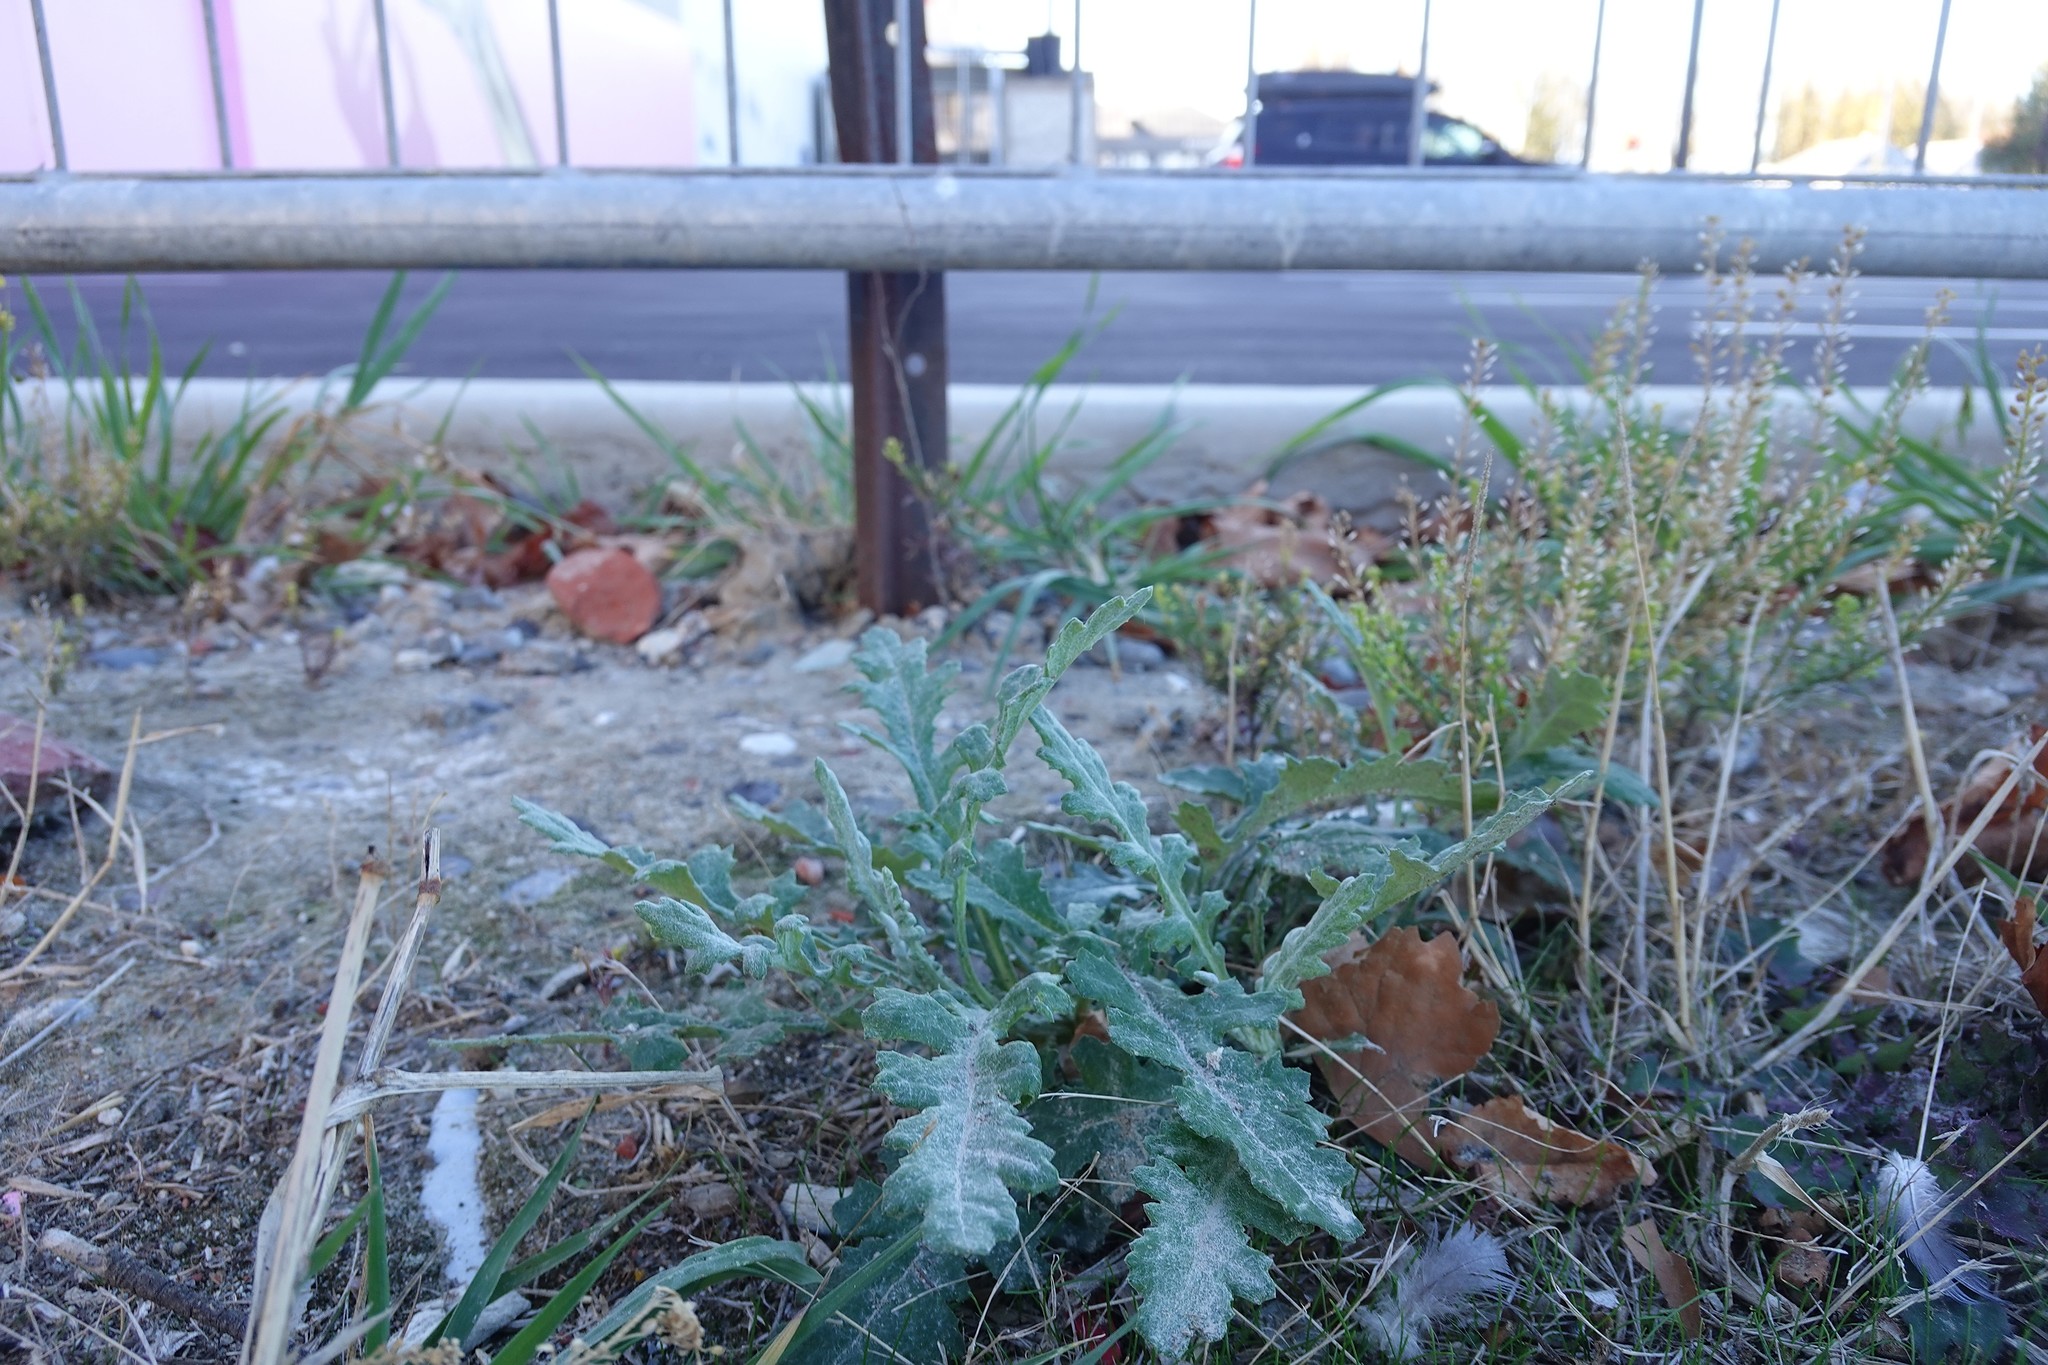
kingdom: Plantae
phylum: Tracheophyta
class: Magnoliopsida
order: Asterales
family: Asteraceae
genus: Senecio
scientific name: Senecio glomeratus
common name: Cutleaf burnweed
